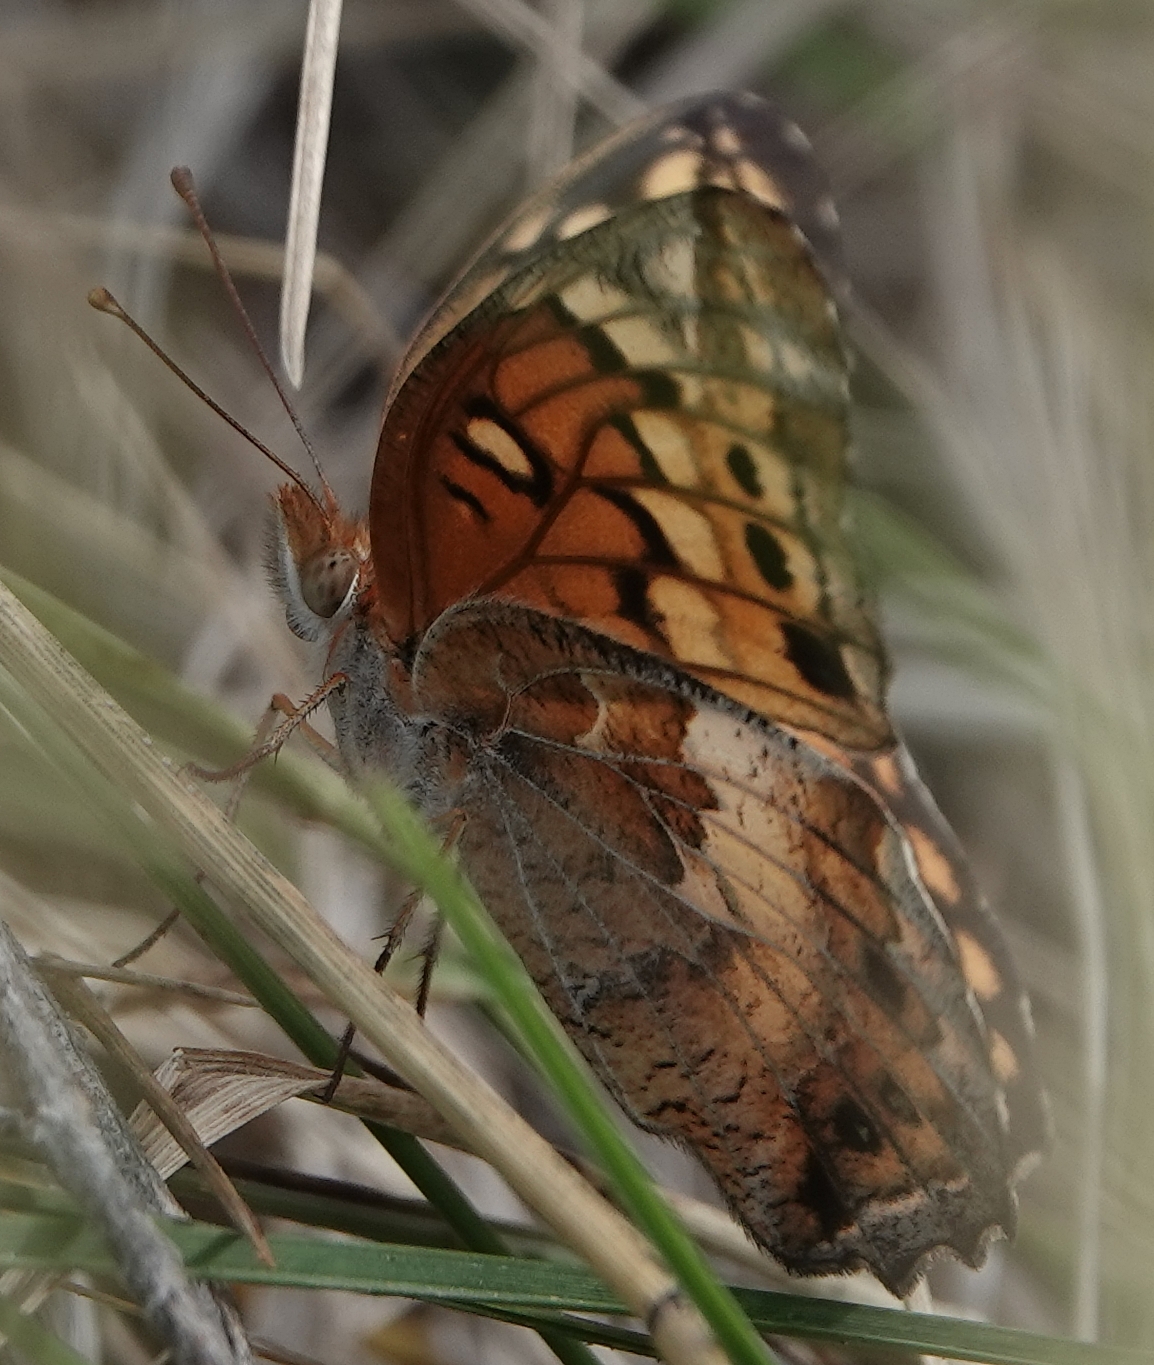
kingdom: Animalia
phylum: Arthropoda
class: Insecta
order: Lepidoptera
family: Nymphalidae
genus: Euptoieta
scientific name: Euptoieta claudia
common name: Variegated fritillary
